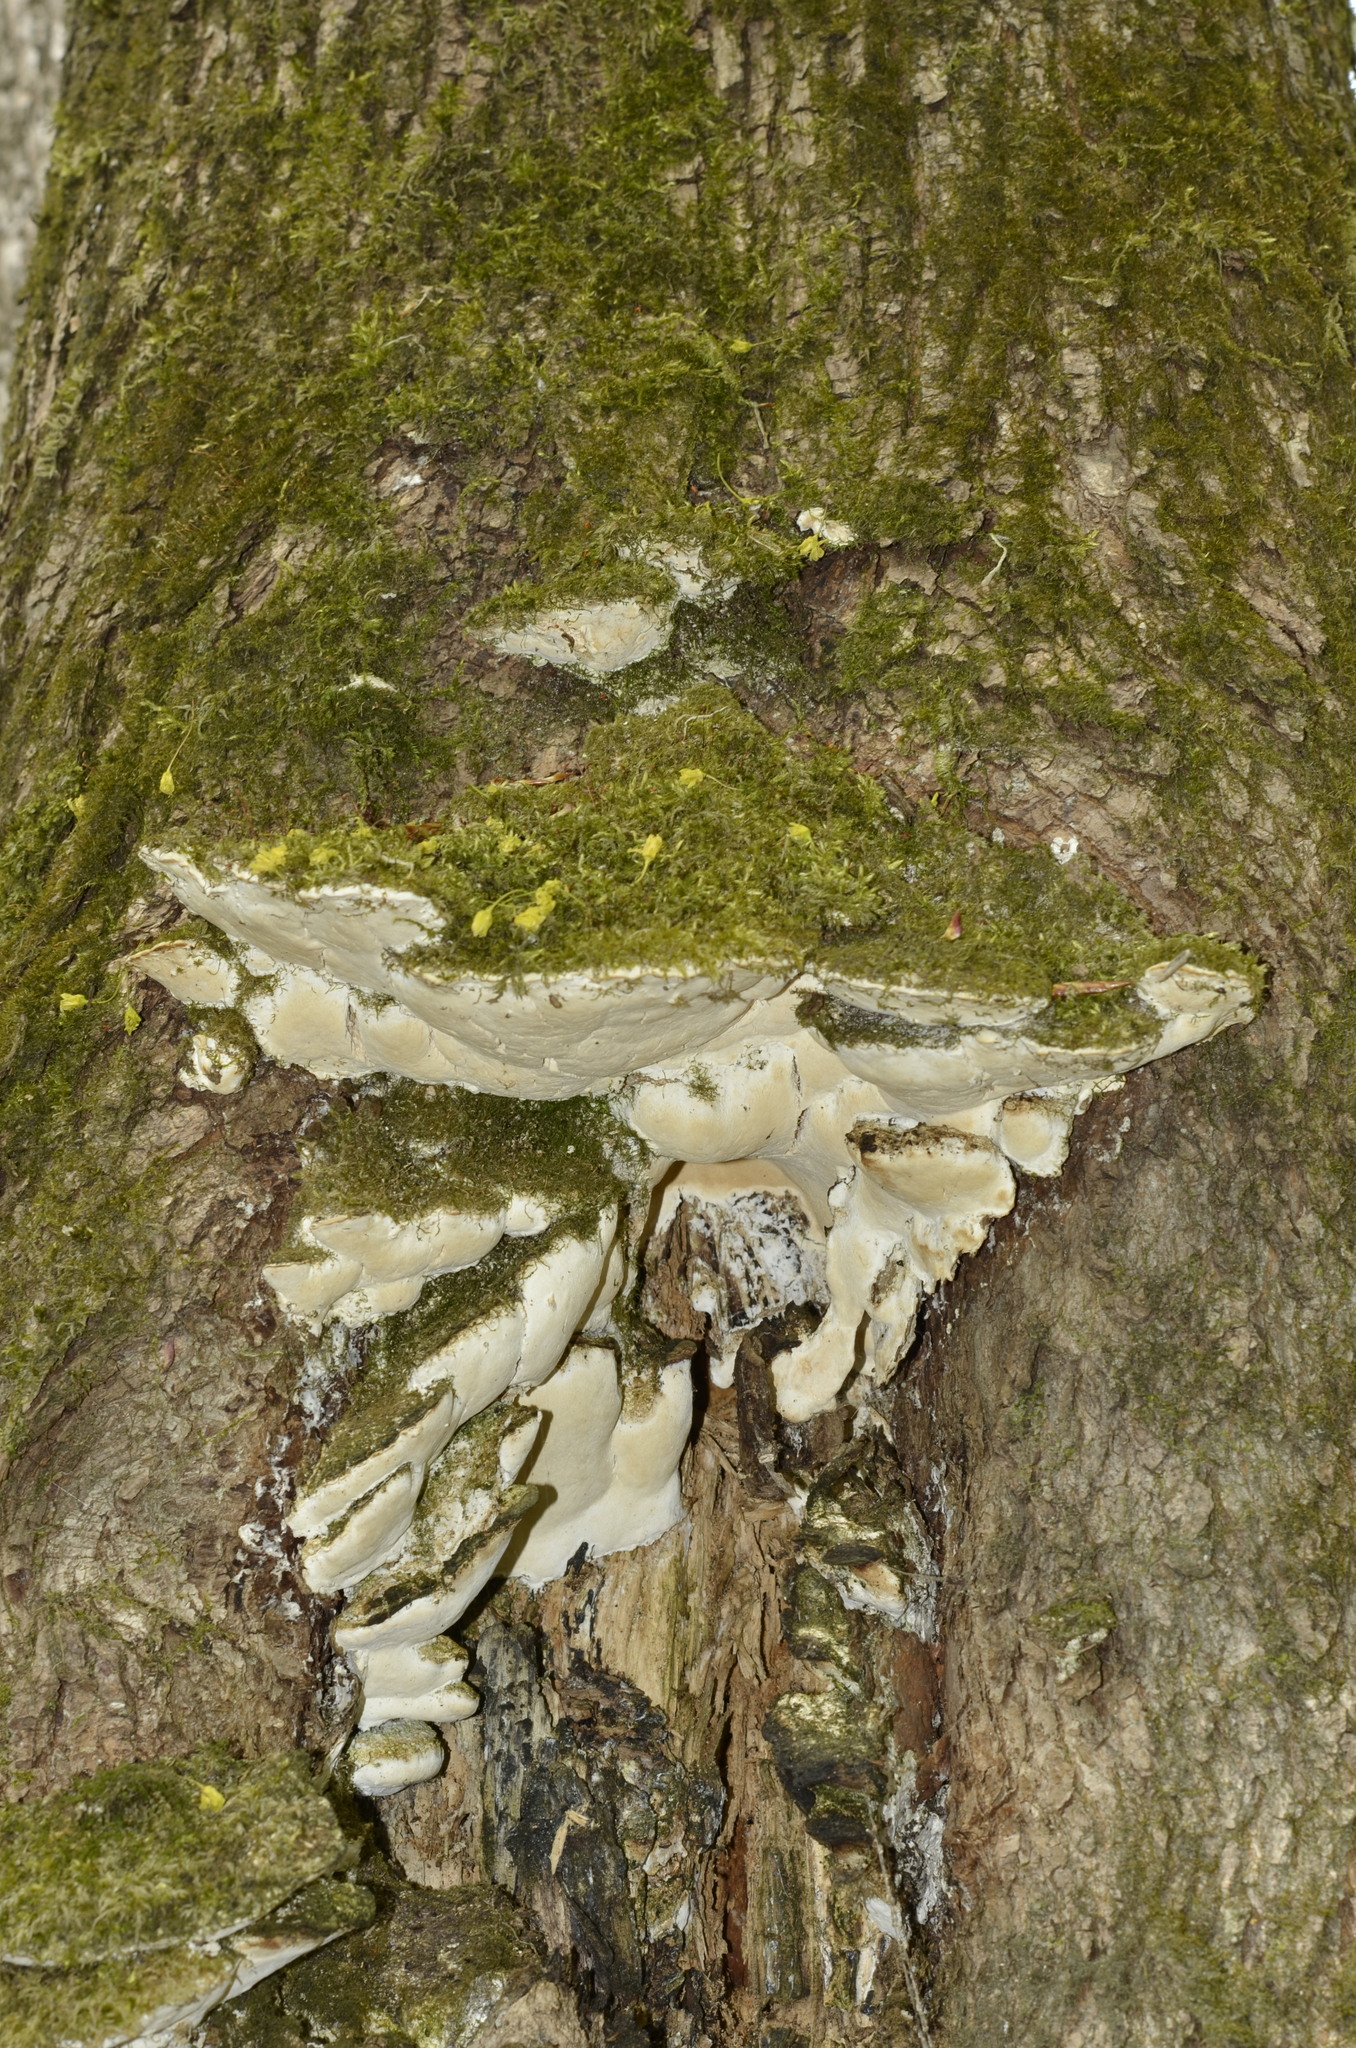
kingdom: Fungi
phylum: Basidiomycota
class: Agaricomycetes
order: Hymenochaetales
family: Oxyporaceae
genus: Oxyporus
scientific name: Oxyporus populinus
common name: Poplar bracket
